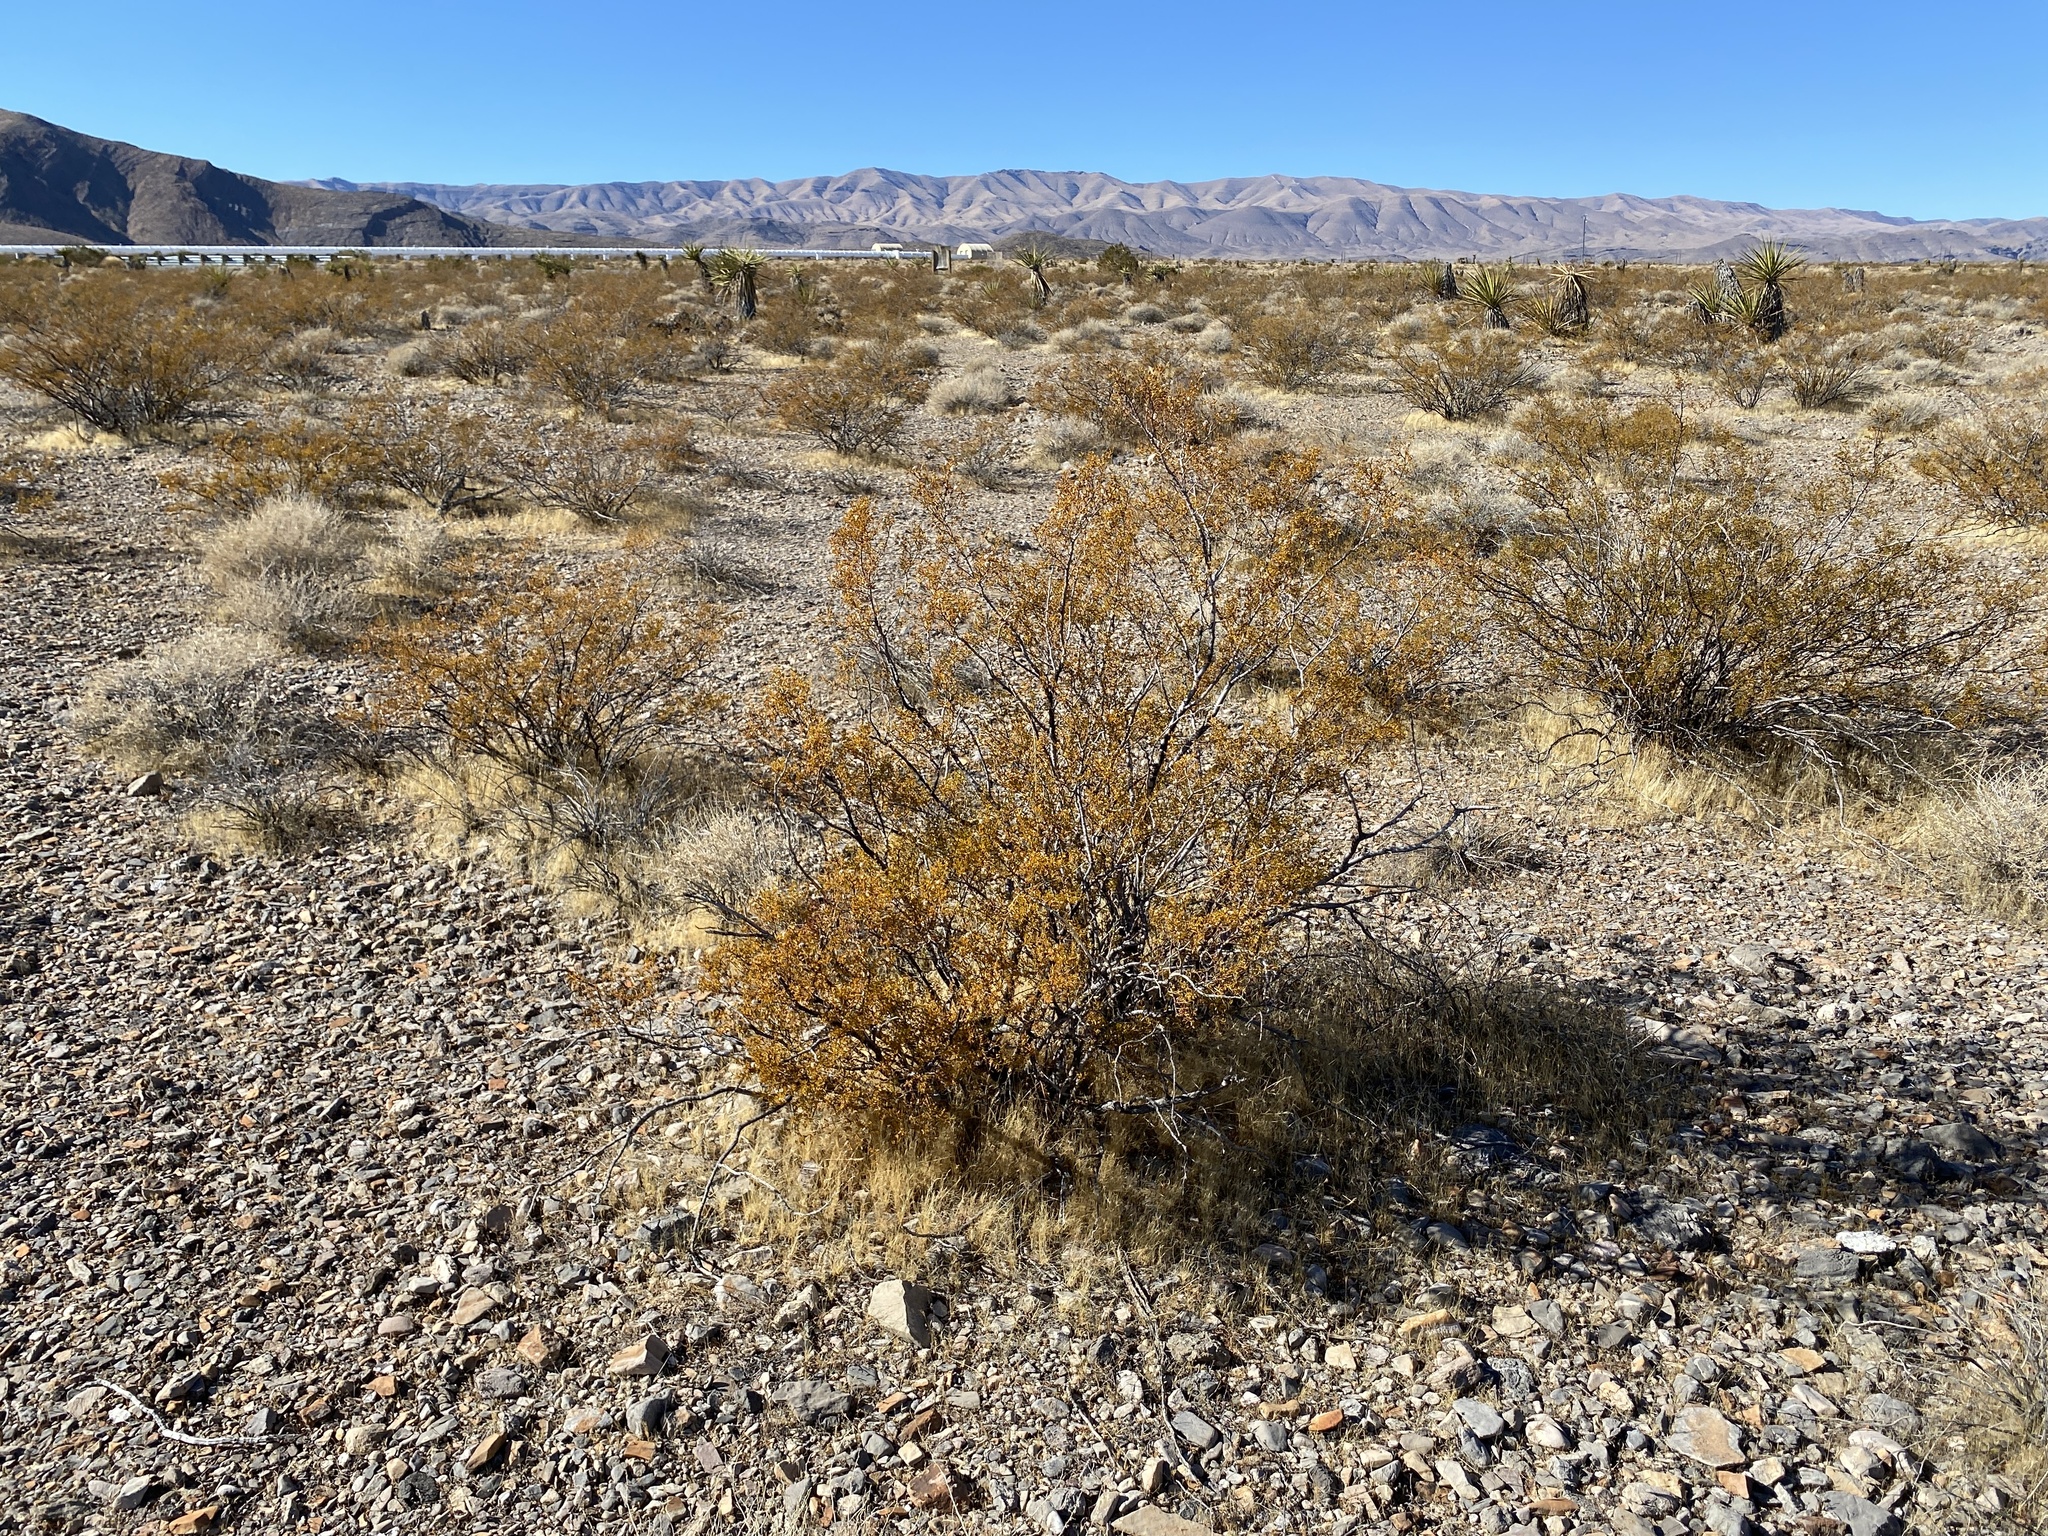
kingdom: Plantae
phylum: Tracheophyta
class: Magnoliopsida
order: Zygophyllales
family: Zygophyllaceae
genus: Larrea
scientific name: Larrea tridentata
